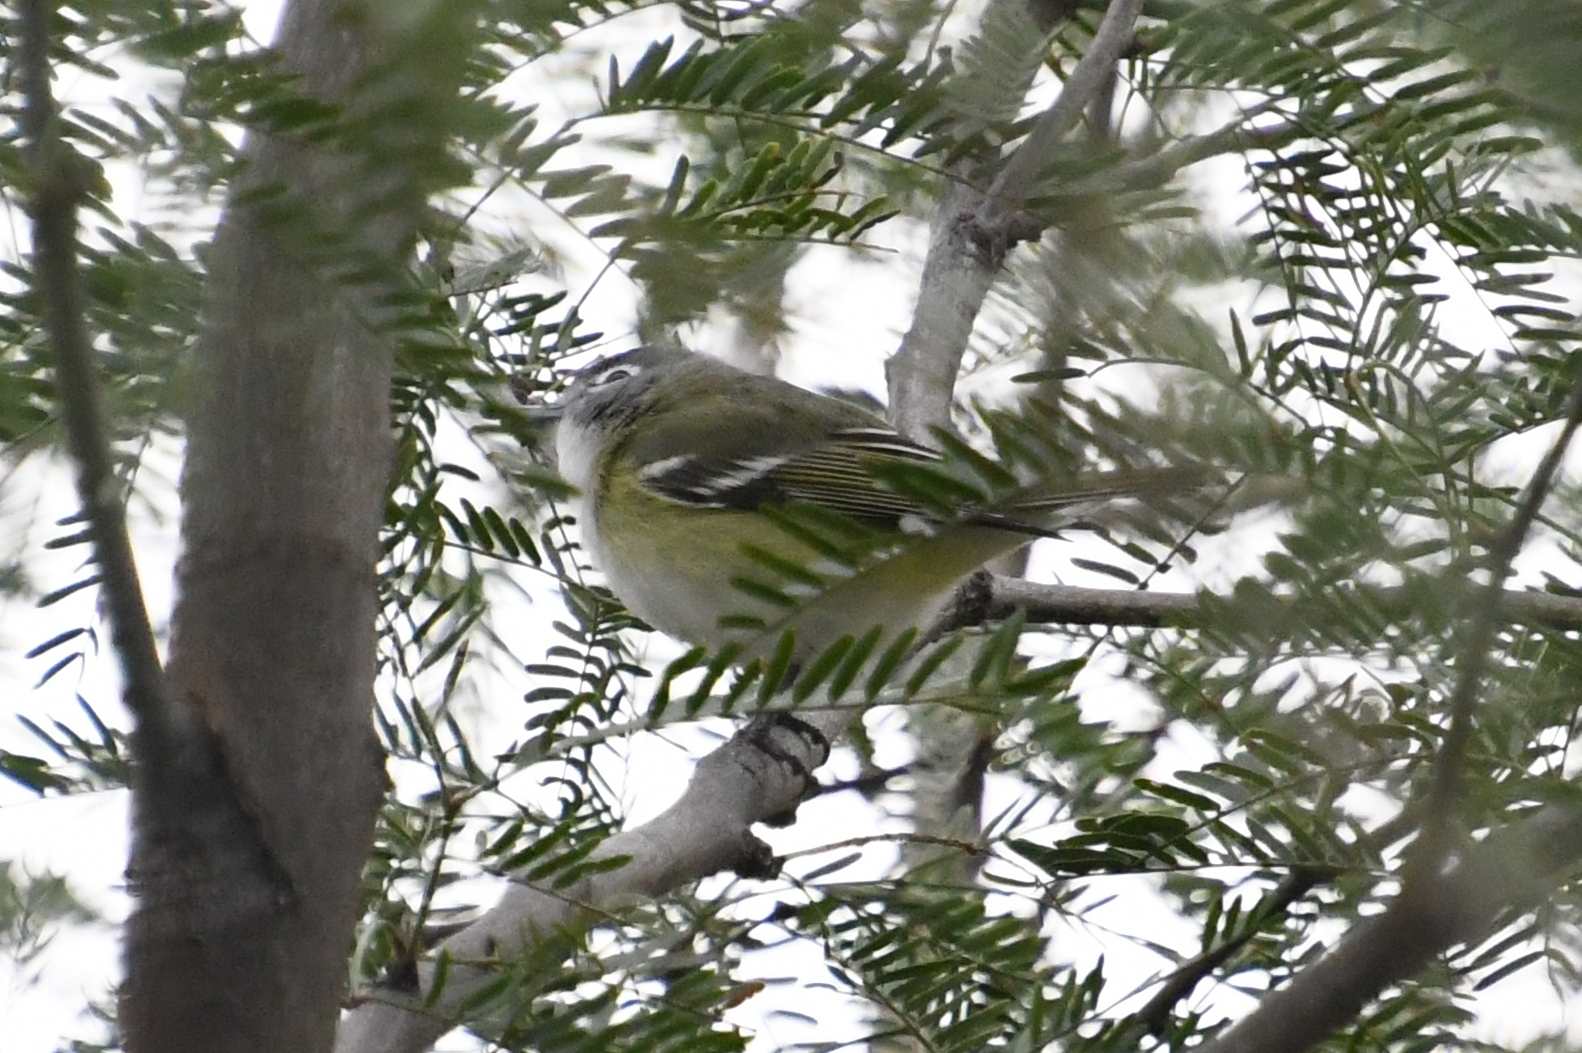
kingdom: Animalia
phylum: Chordata
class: Aves
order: Passeriformes
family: Vireonidae
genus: Vireo
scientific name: Vireo solitarius
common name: Blue-headed vireo
